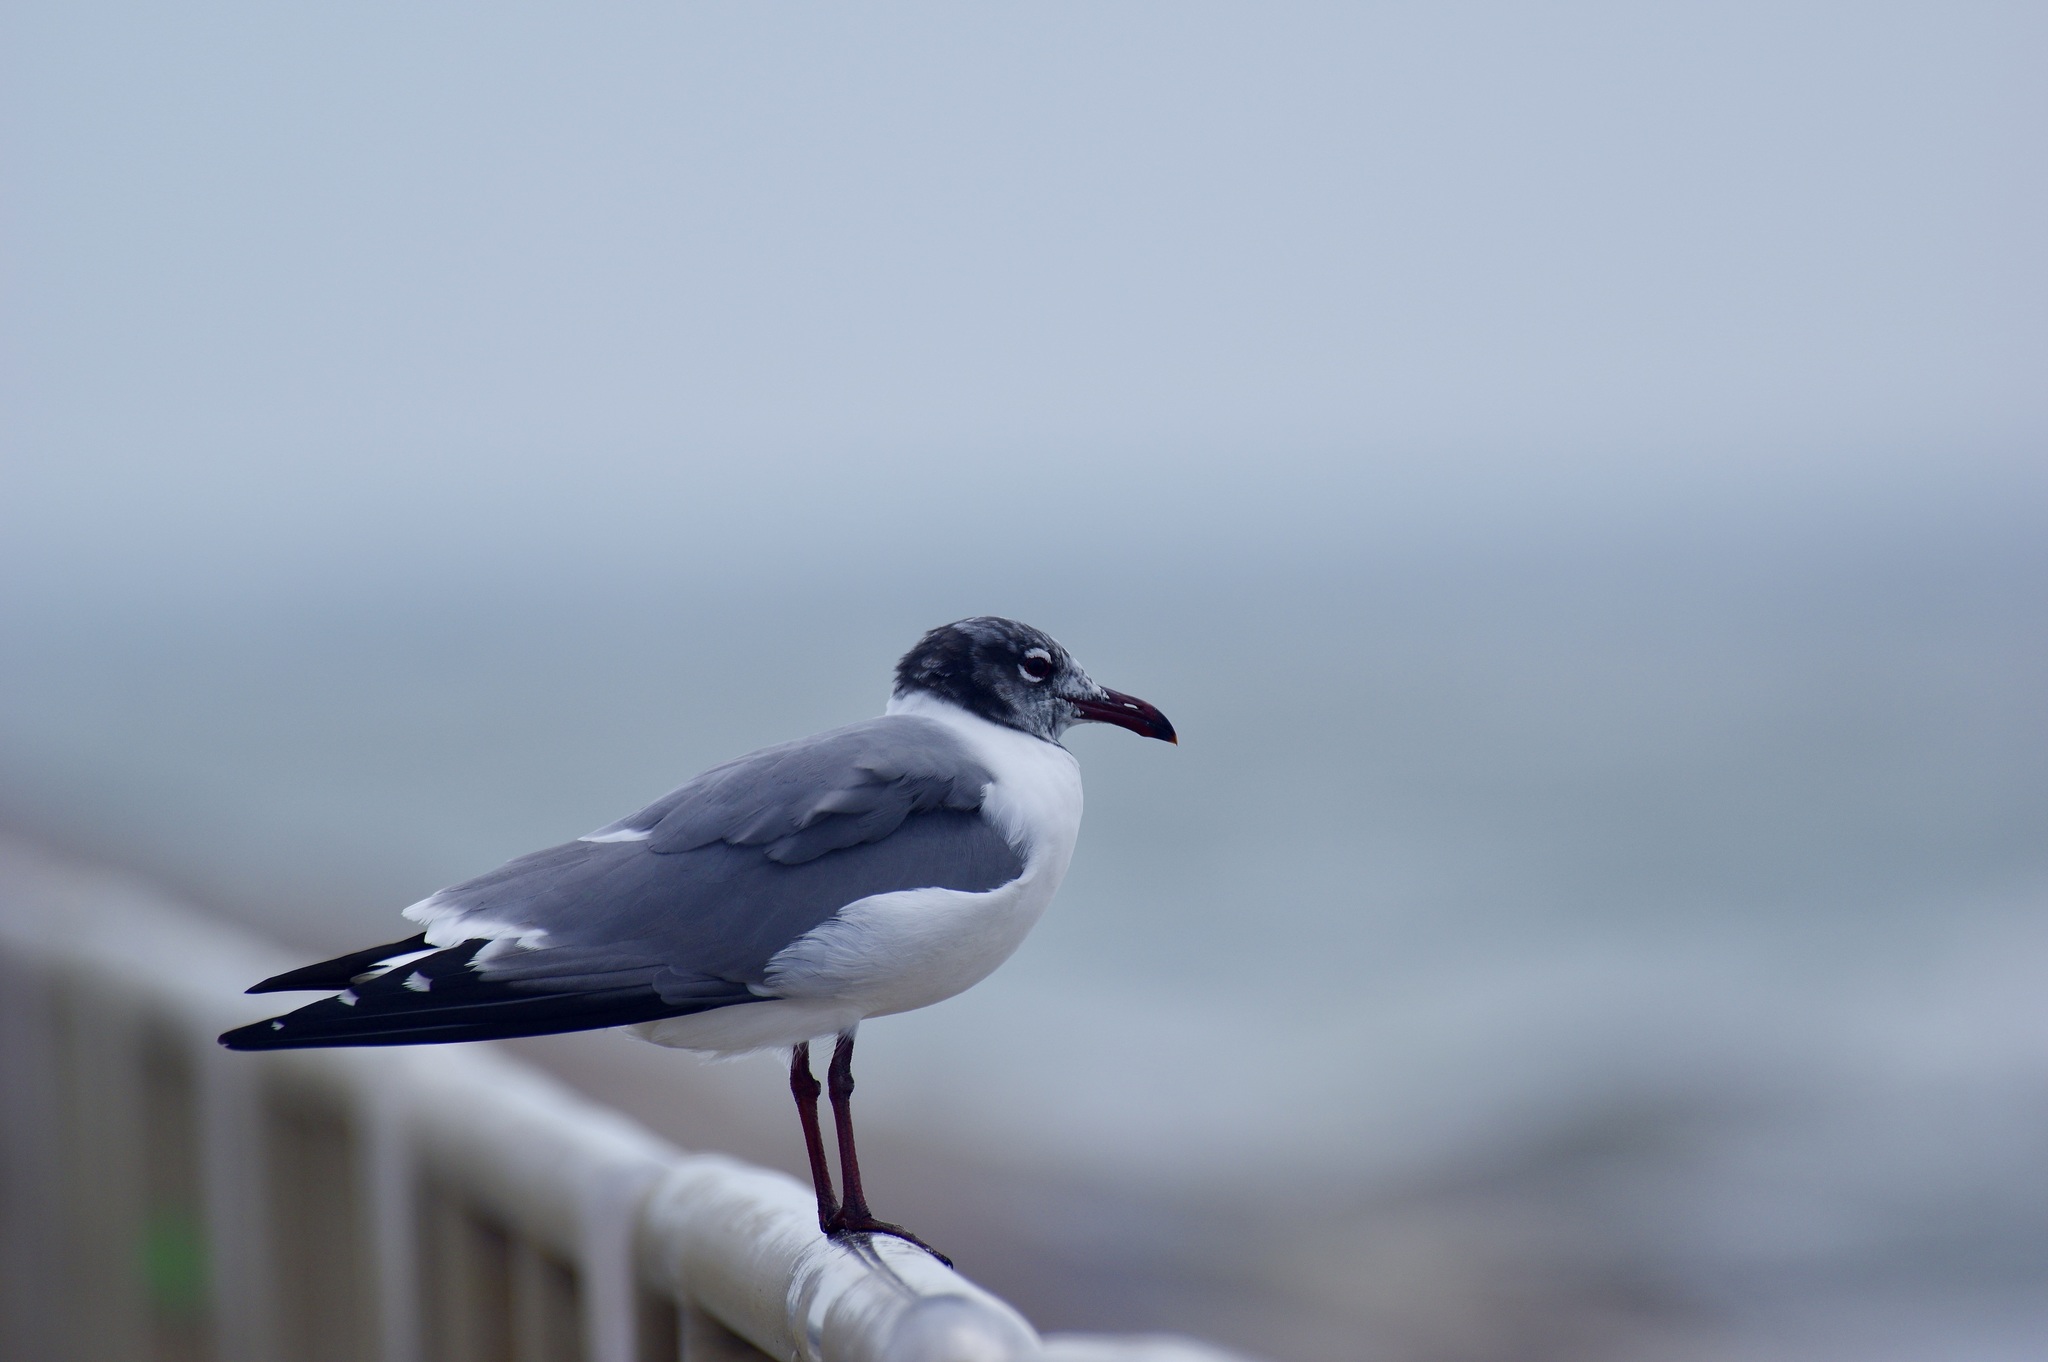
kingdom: Animalia
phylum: Chordata
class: Aves
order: Charadriiformes
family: Laridae
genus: Leucophaeus
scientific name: Leucophaeus atricilla
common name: Laughing gull
